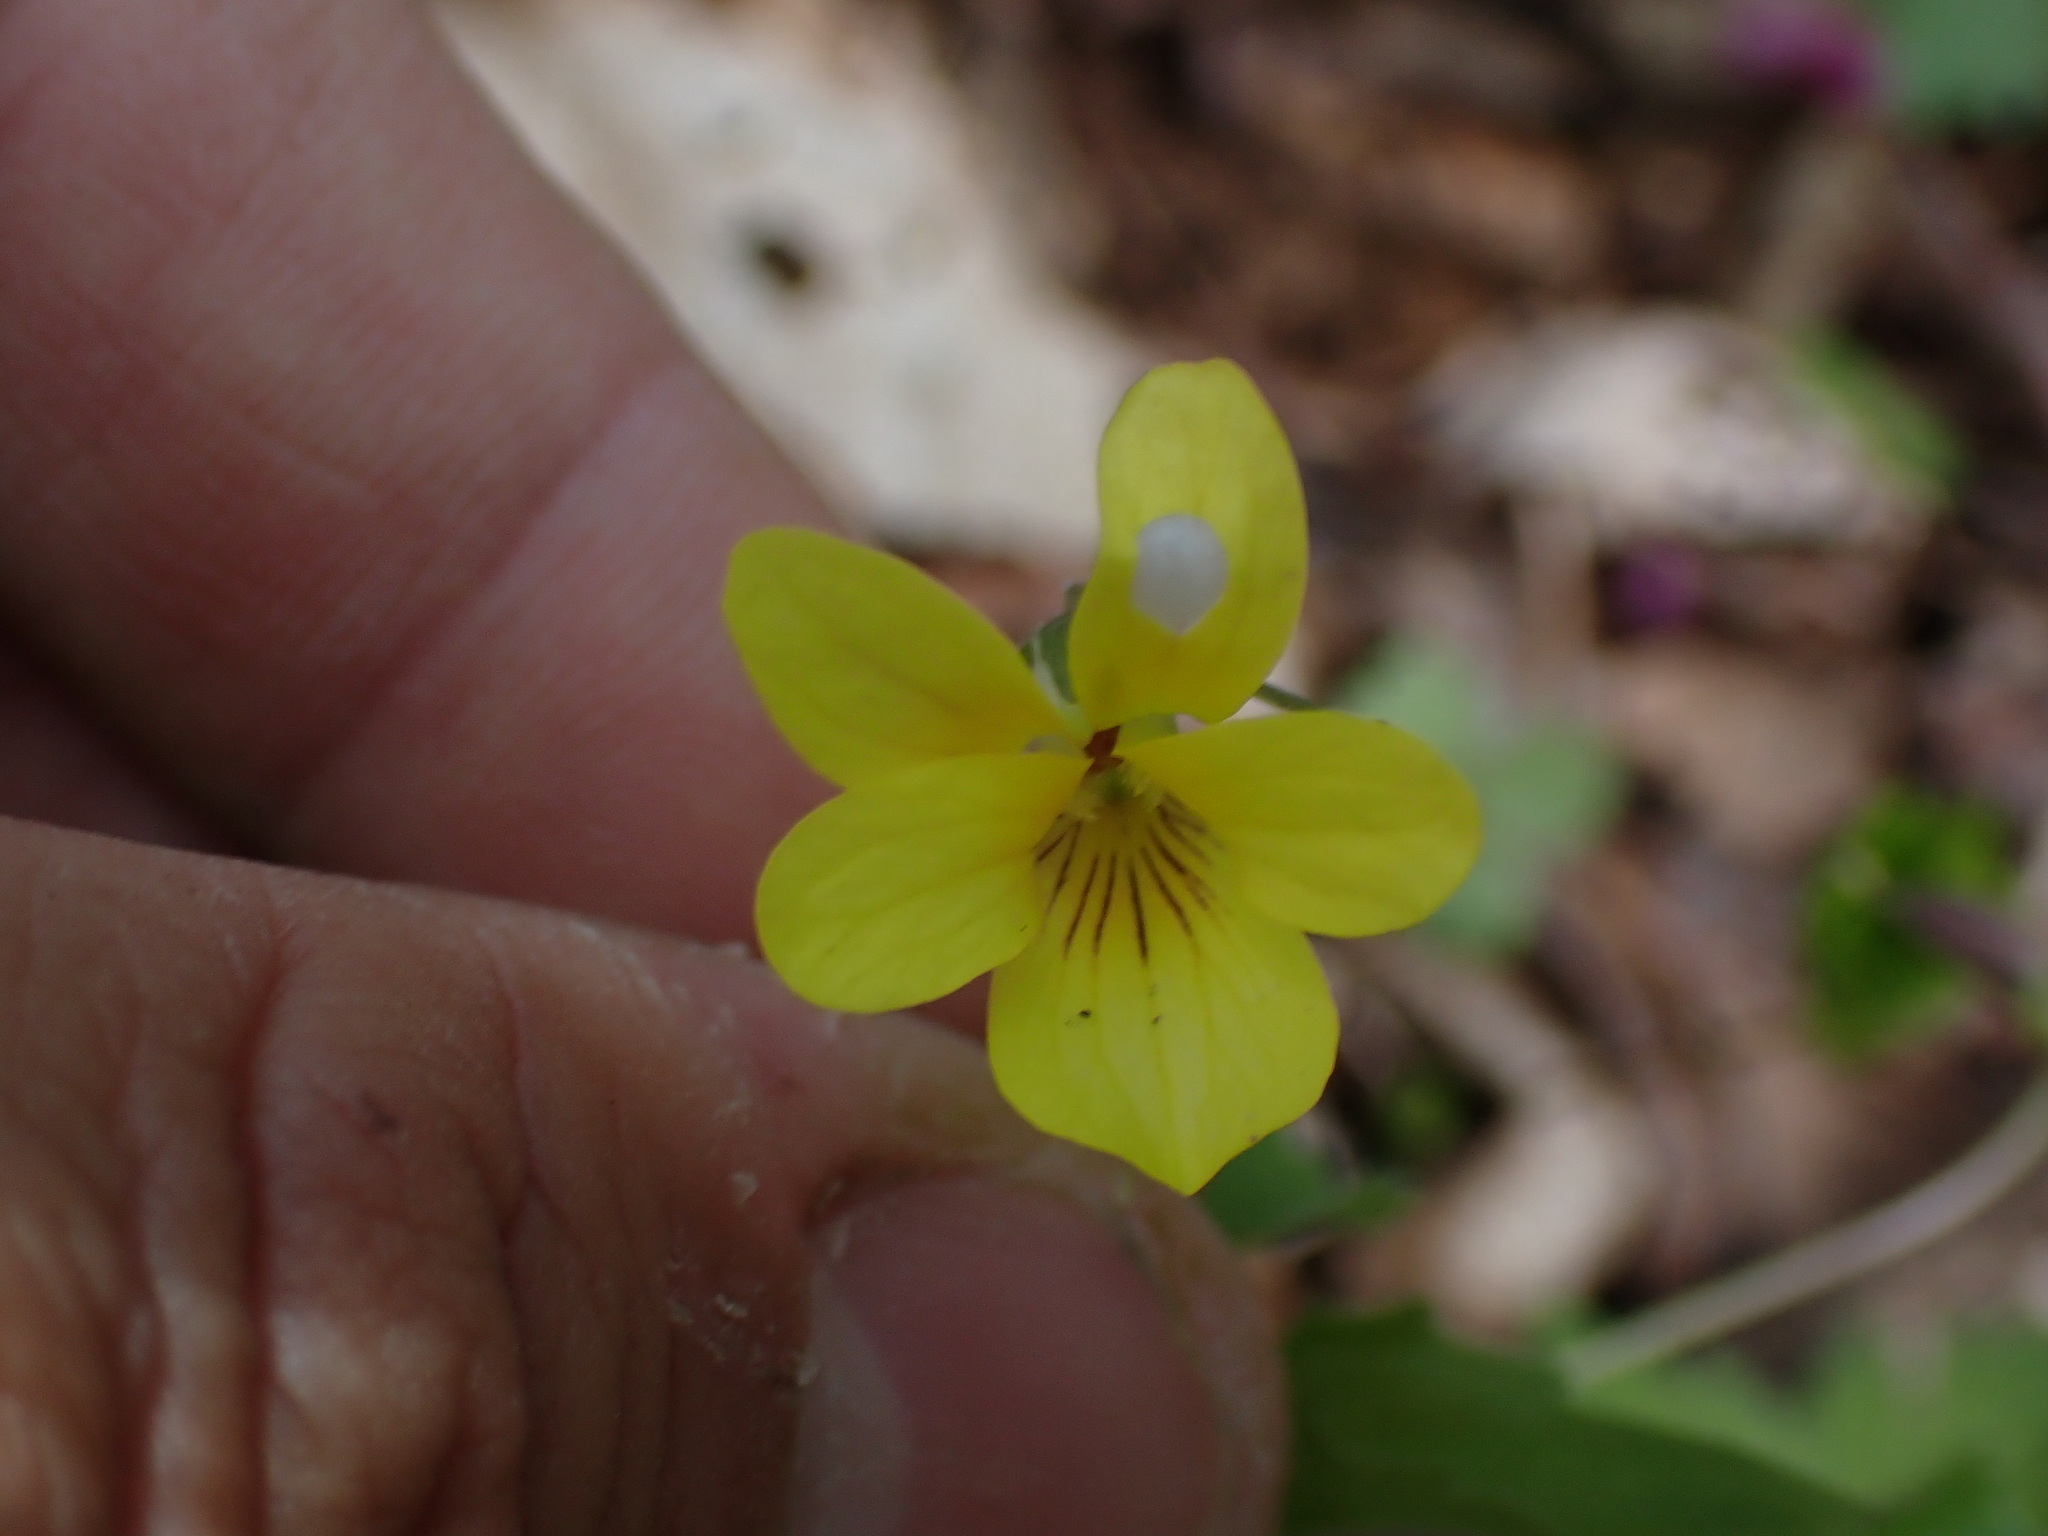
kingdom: Plantae
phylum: Tracheophyta
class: Magnoliopsida
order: Malpighiales
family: Violaceae
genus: Viola
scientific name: Viola eriocarpa
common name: Smooth yellow violet
